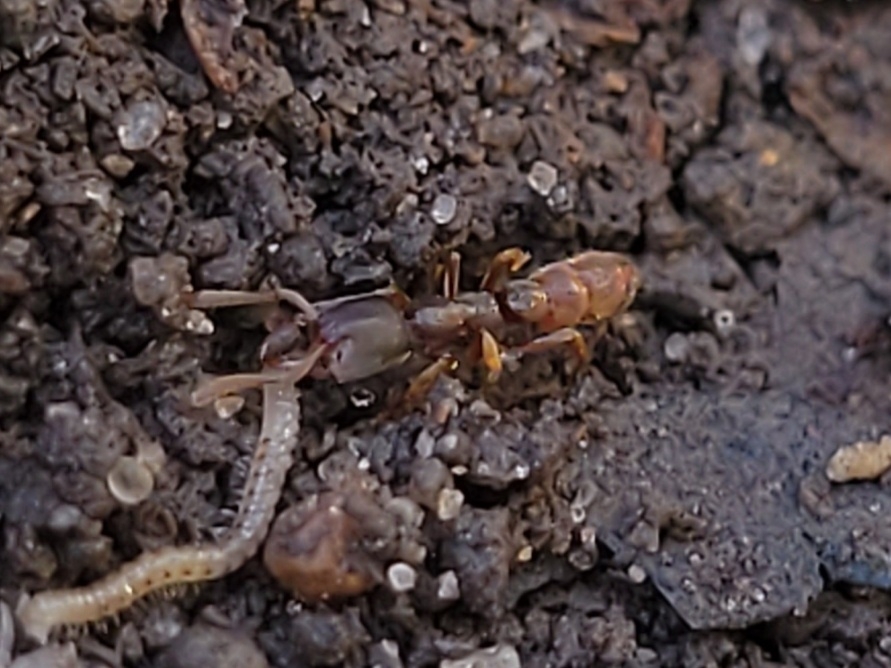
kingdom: Animalia
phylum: Arthropoda
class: Insecta
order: Hymenoptera
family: Formicidae
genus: Stigmatomma
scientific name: Stigmatomma pallipes
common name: Vampire ant
